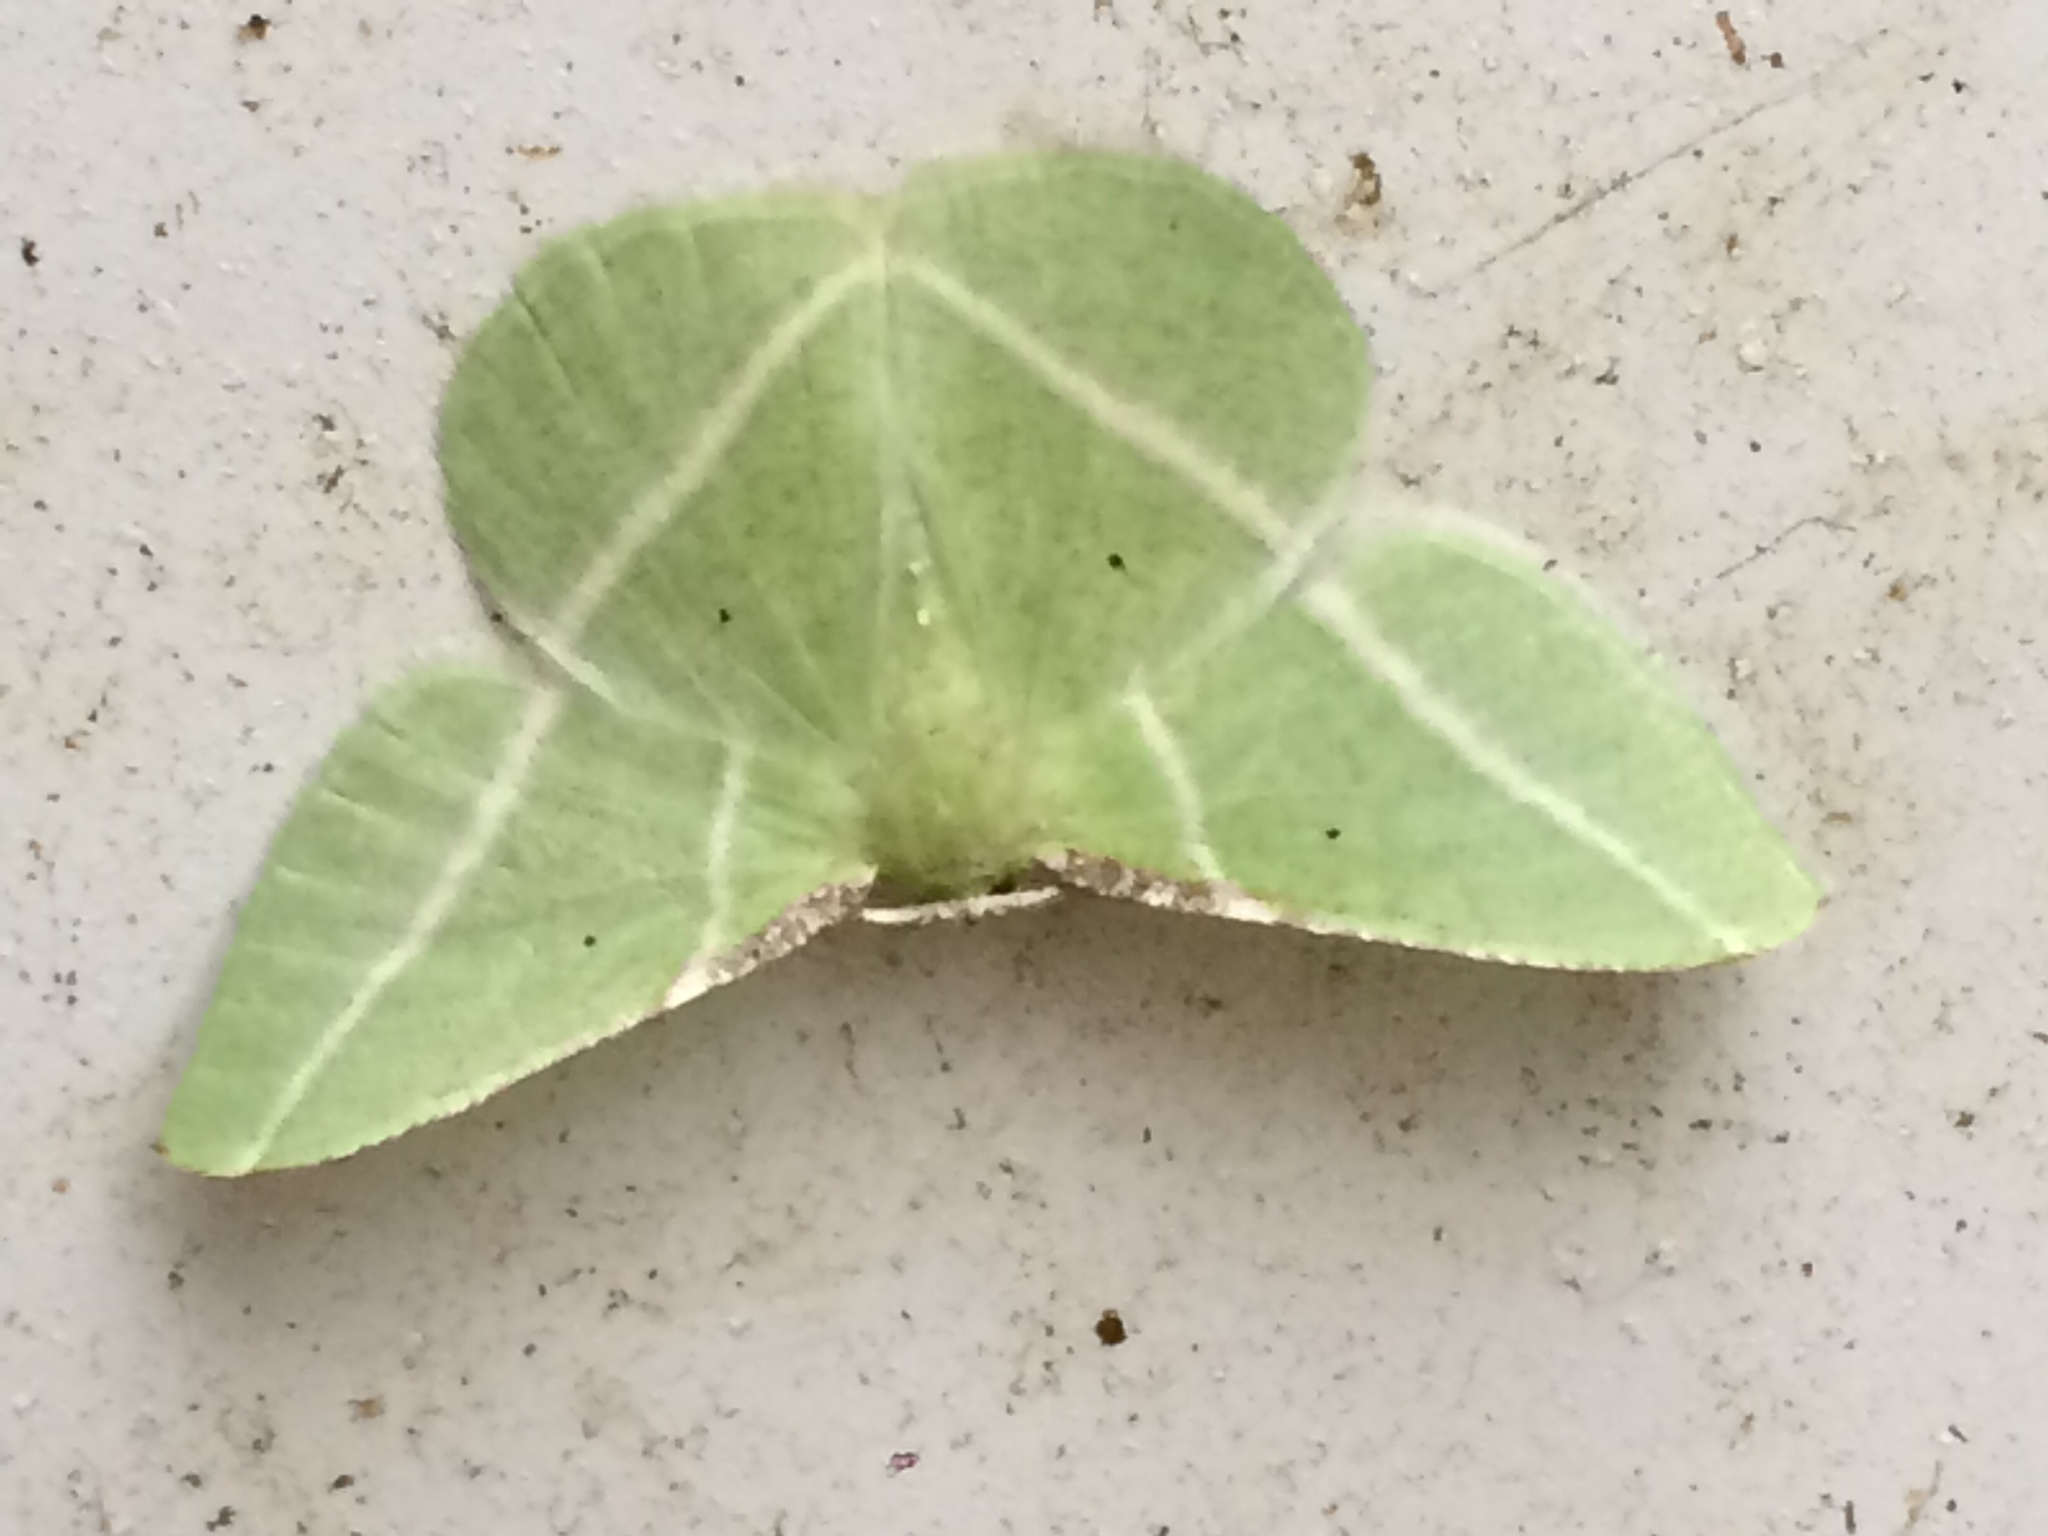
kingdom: Animalia
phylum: Arthropoda
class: Insecta
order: Lepidoptera
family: Geometridae
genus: Dichorda
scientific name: Dichorda illustraria
